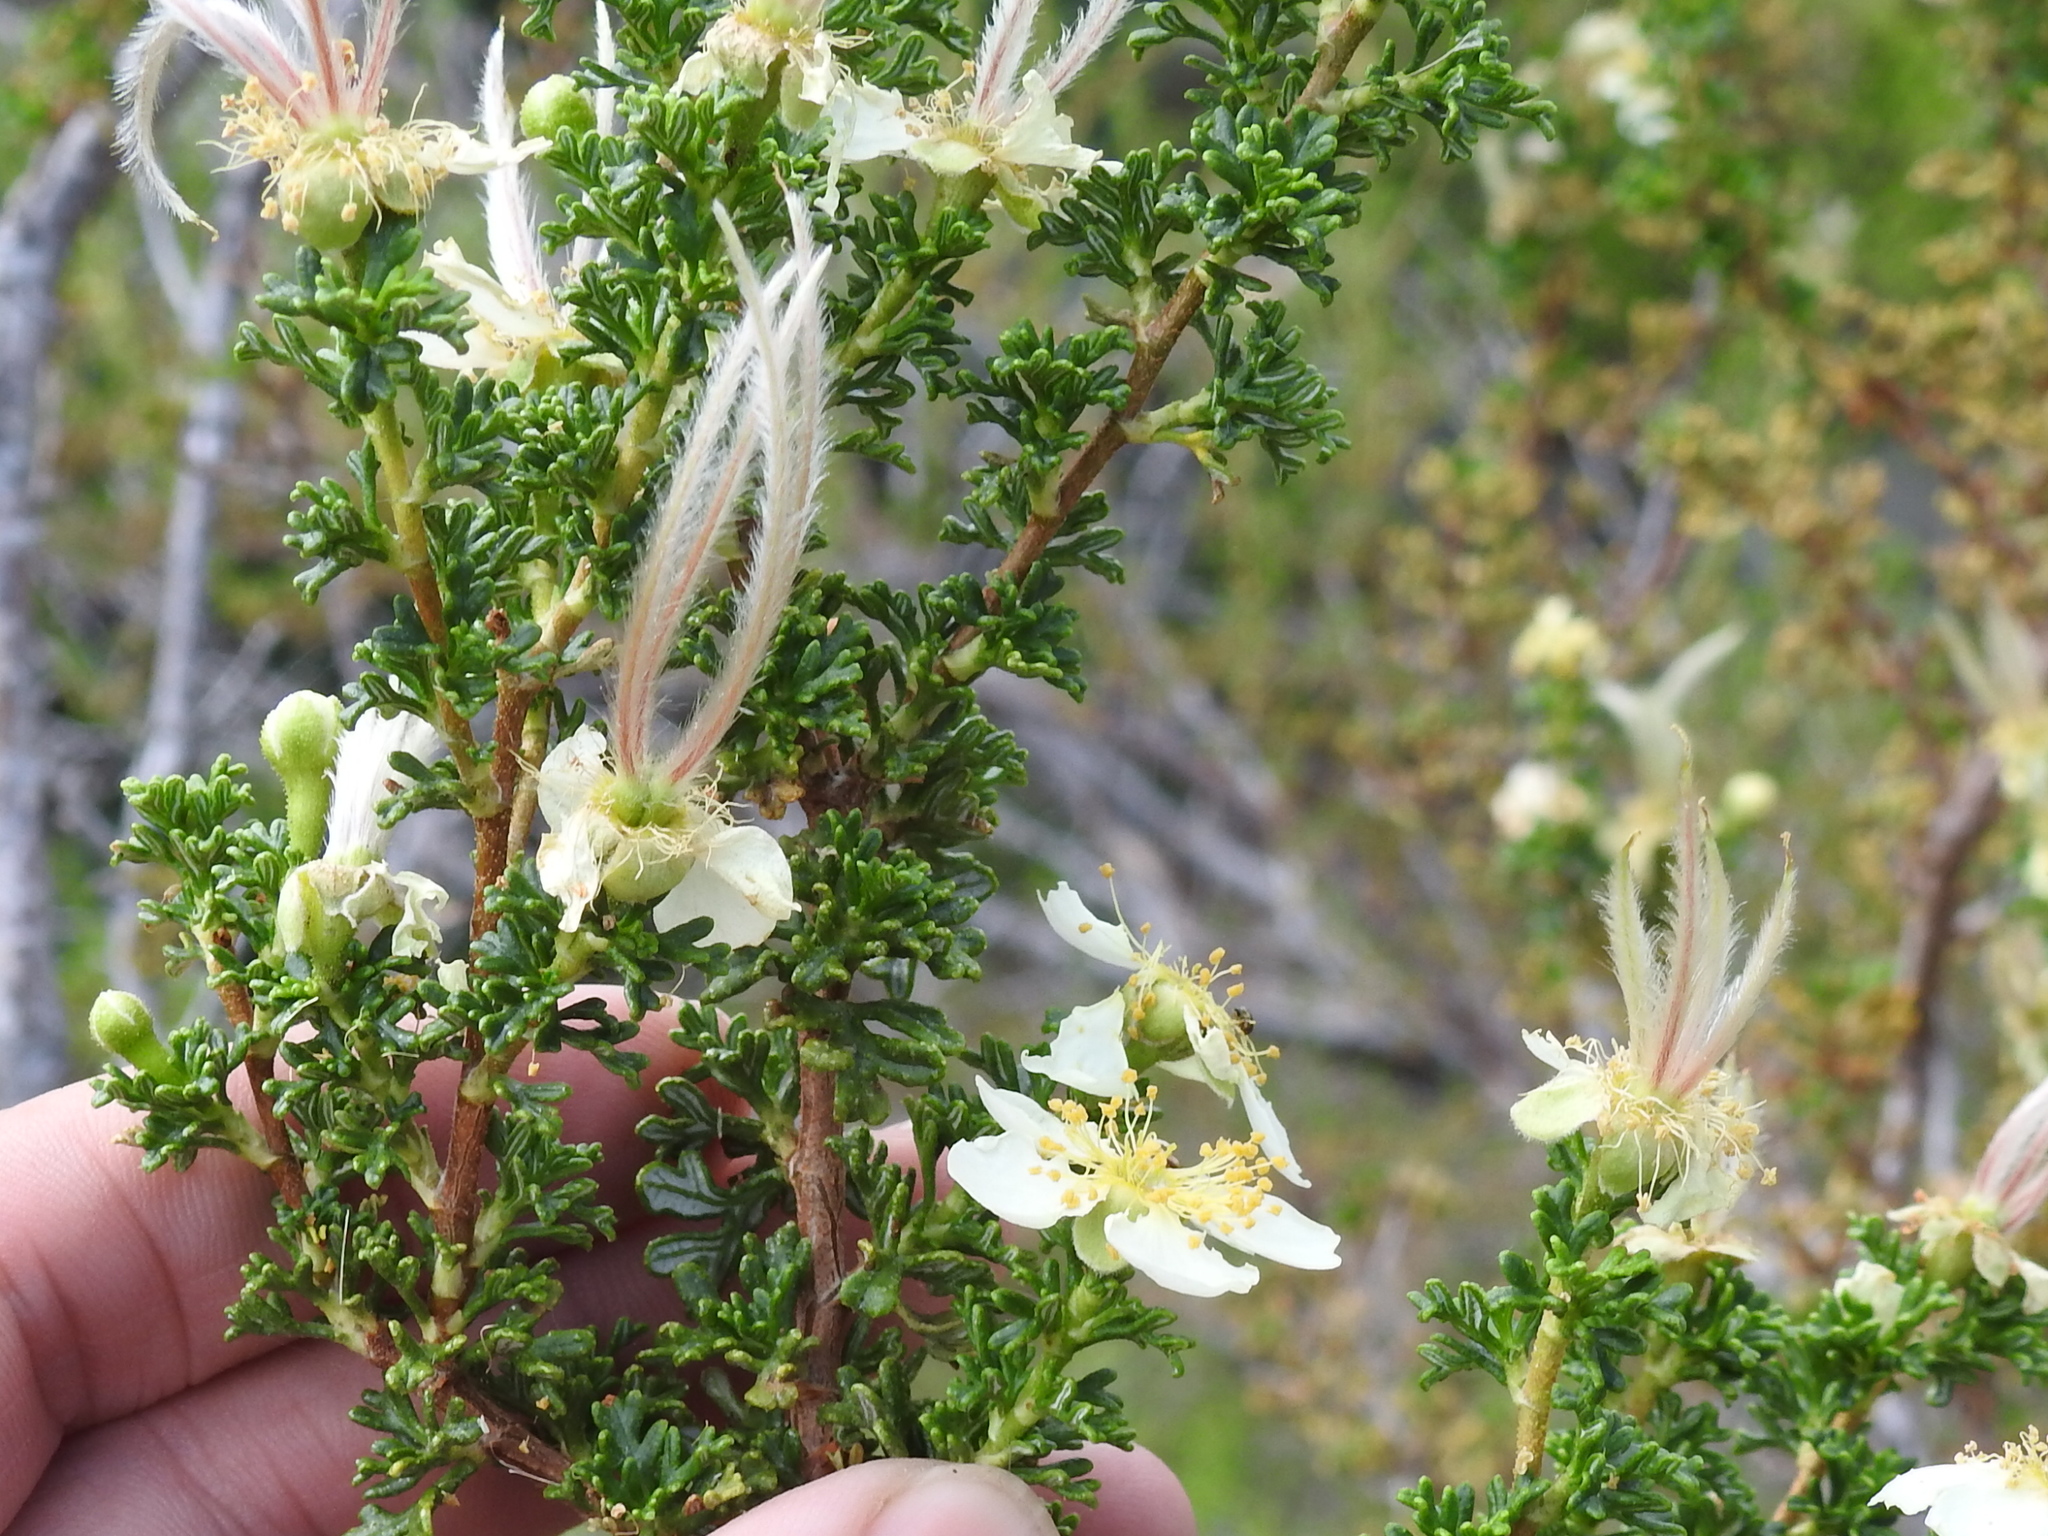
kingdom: Plantae
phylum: Tracheophyta
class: Magnoliopsida
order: Rosales
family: Rosaceae
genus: Purshia
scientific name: Purshia stansburiana
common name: Stansbury's cliffrose
